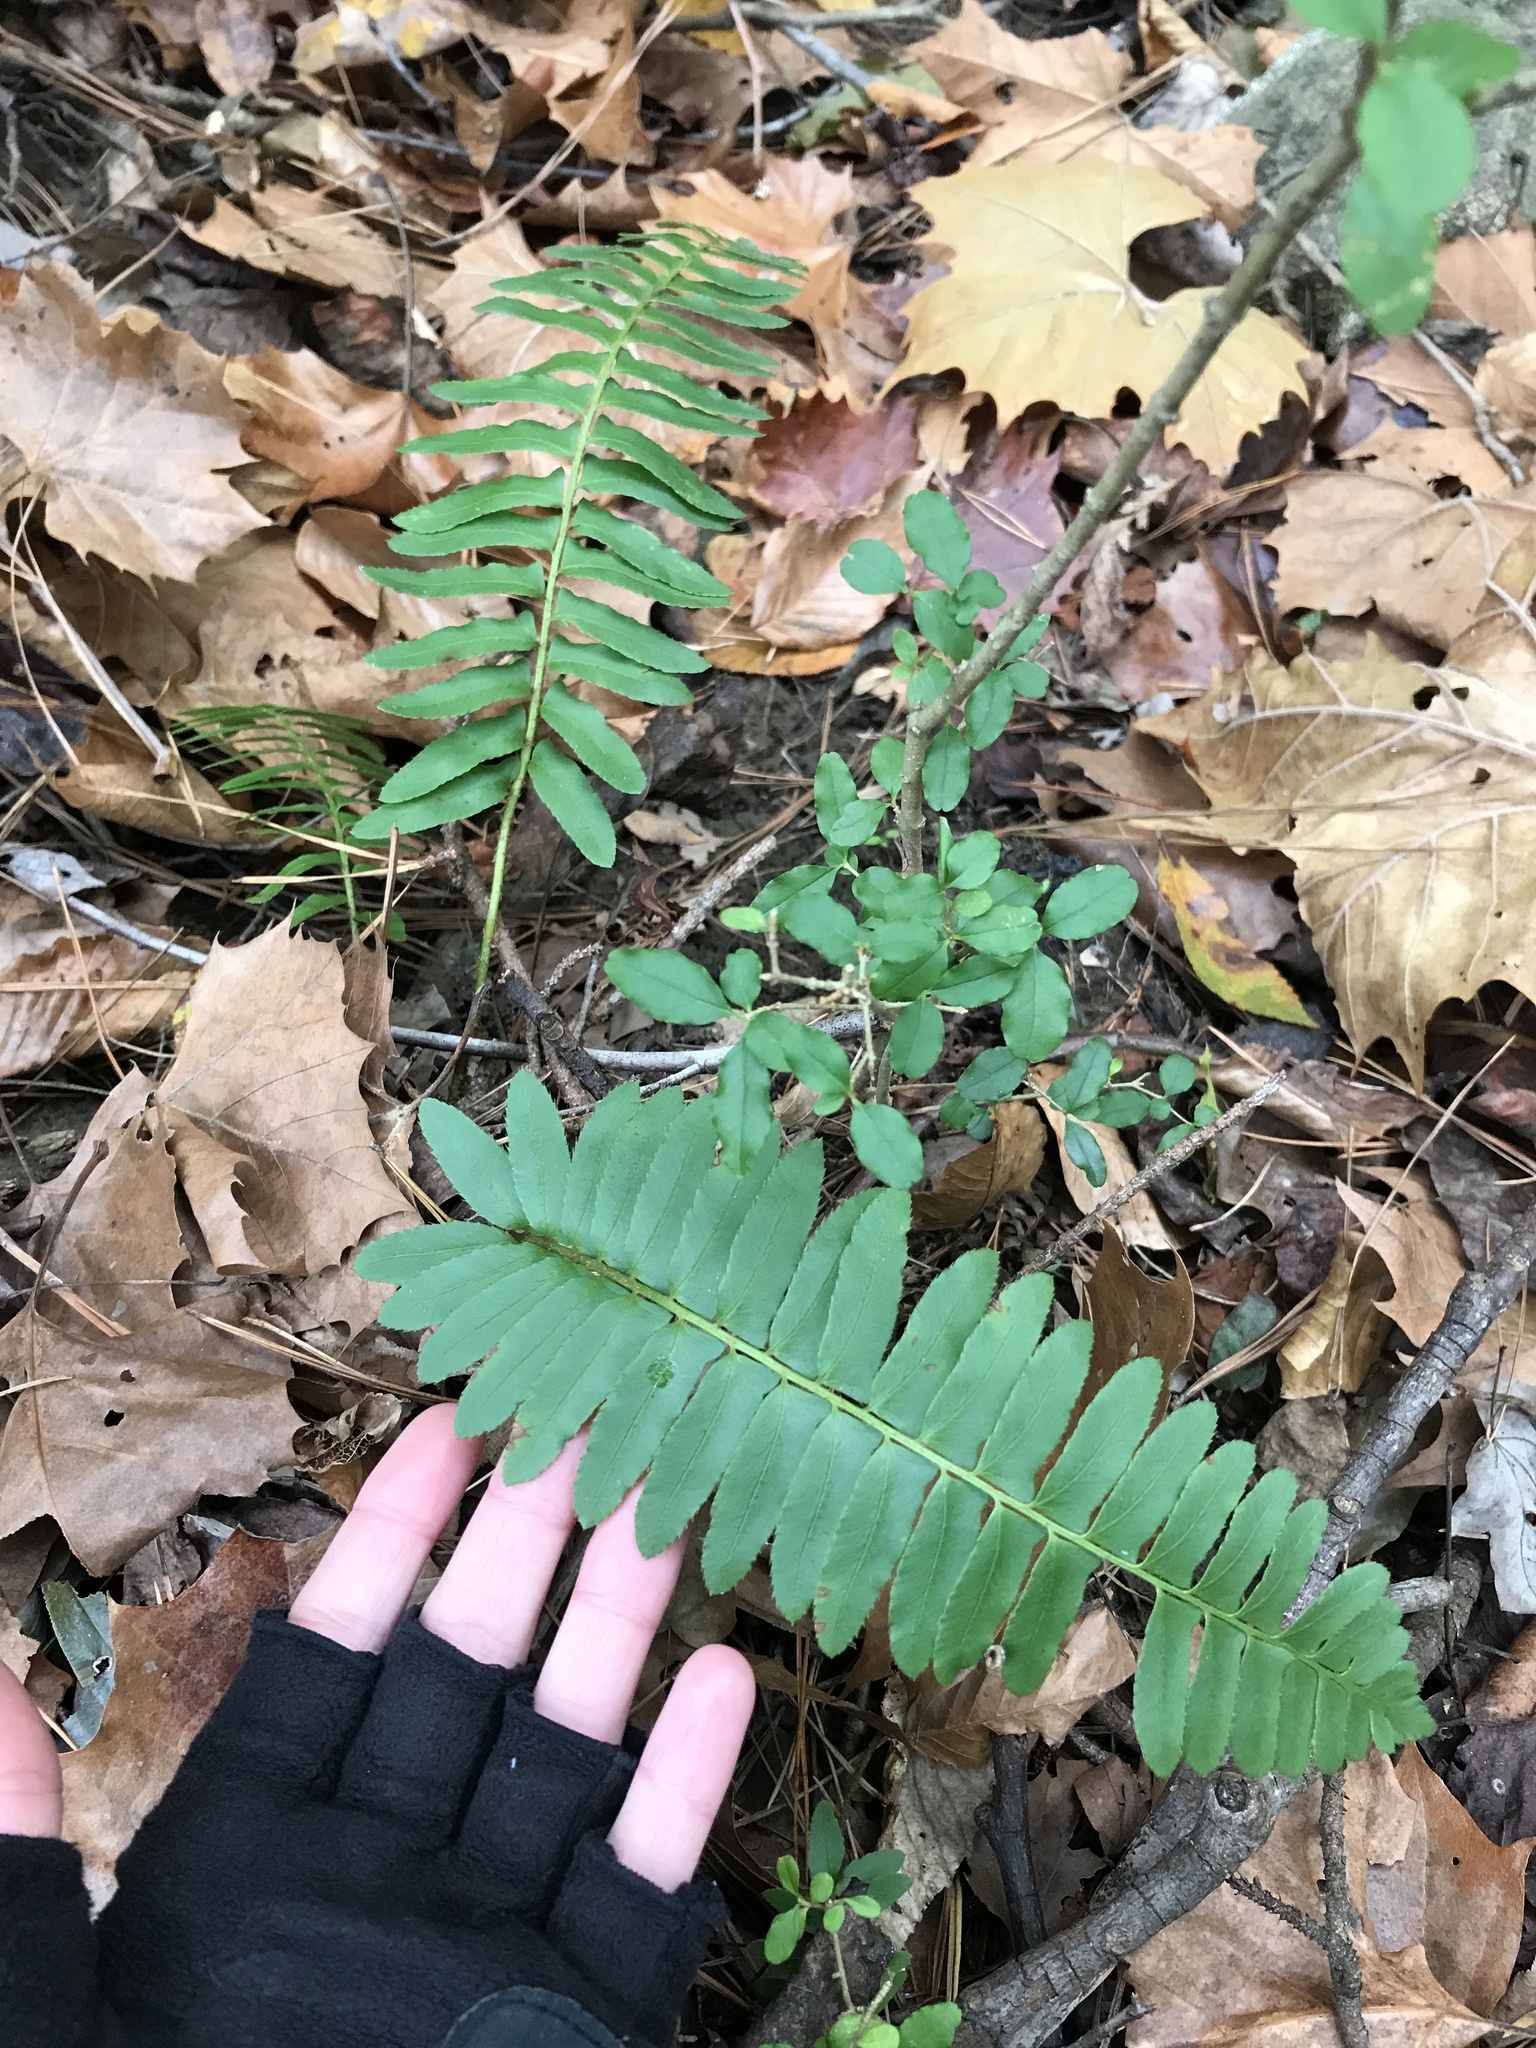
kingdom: Plantae
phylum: Tracheophyta
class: Polypodiopsida
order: Polypodiales
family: Dryopteridaceae
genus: Polystichum
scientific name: Polystichum acrostichoides
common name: Christmas fern
